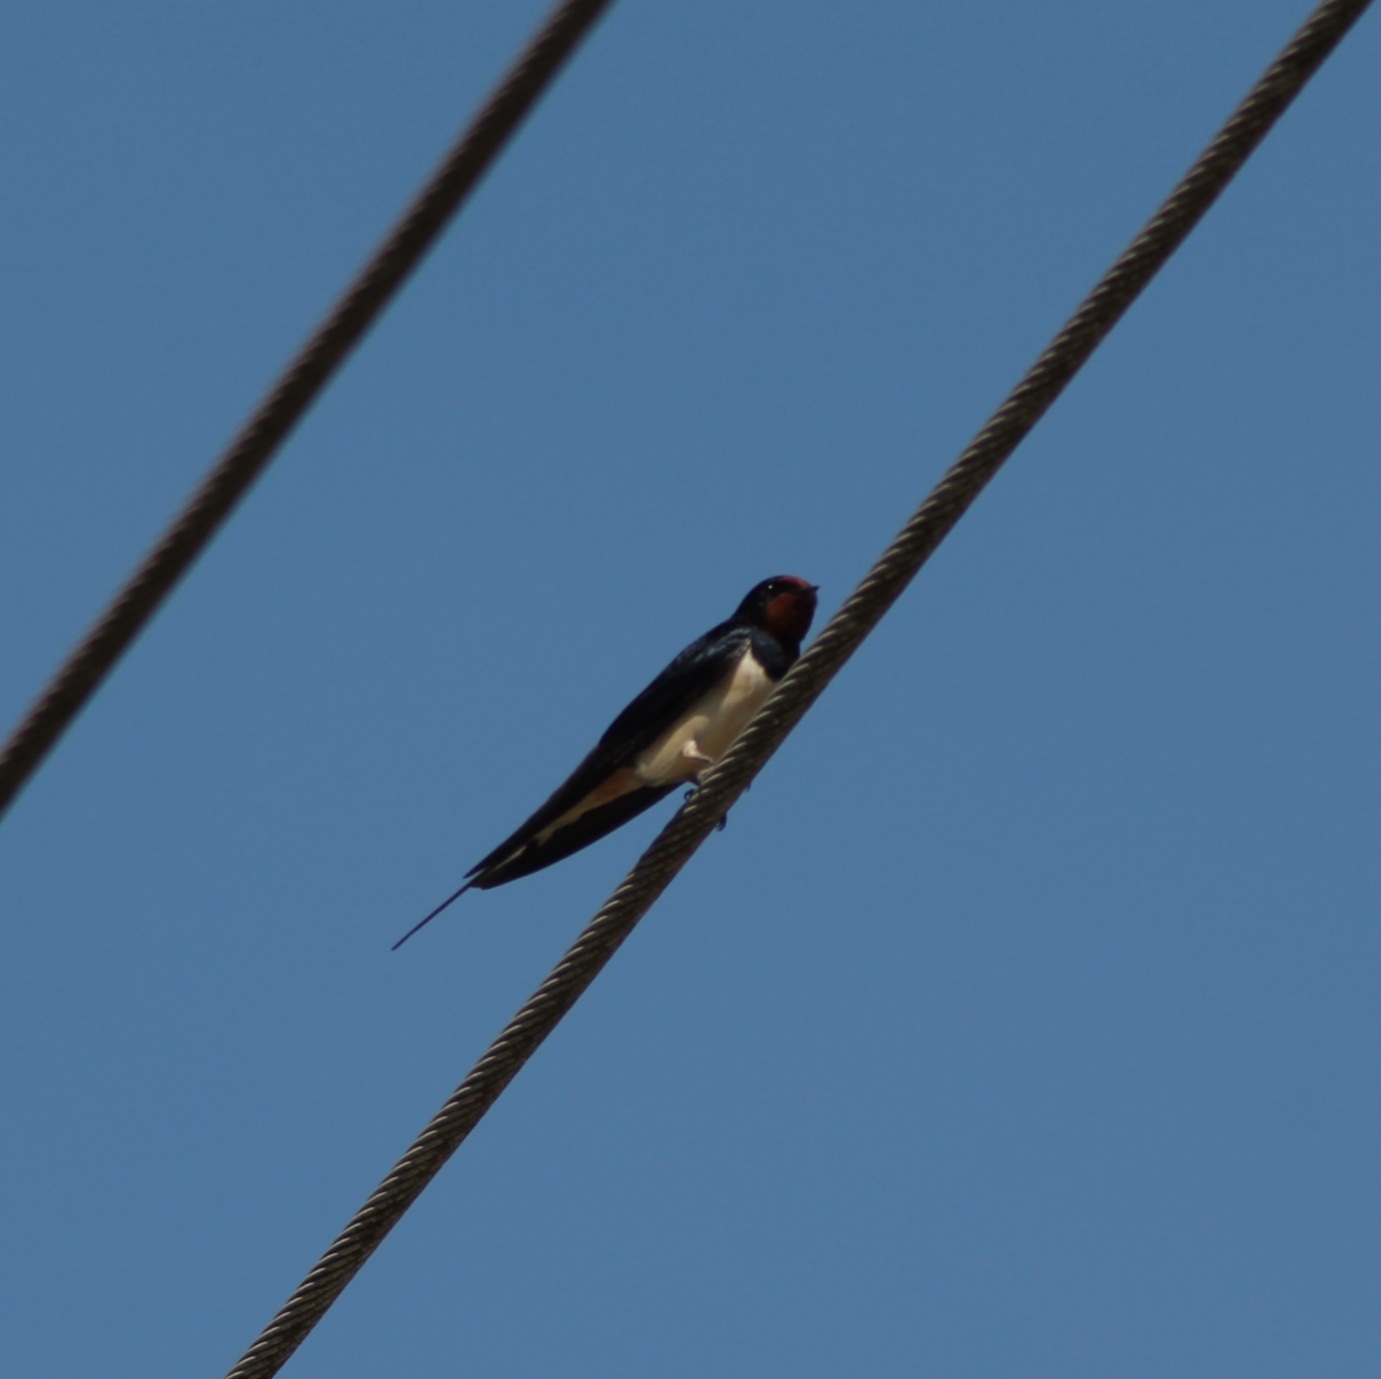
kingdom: Animalia
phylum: Chordata
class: Aves
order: Passeriformes
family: Hirundinidae
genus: Hirundo
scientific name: Hirundo rustica
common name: Barn swallow
